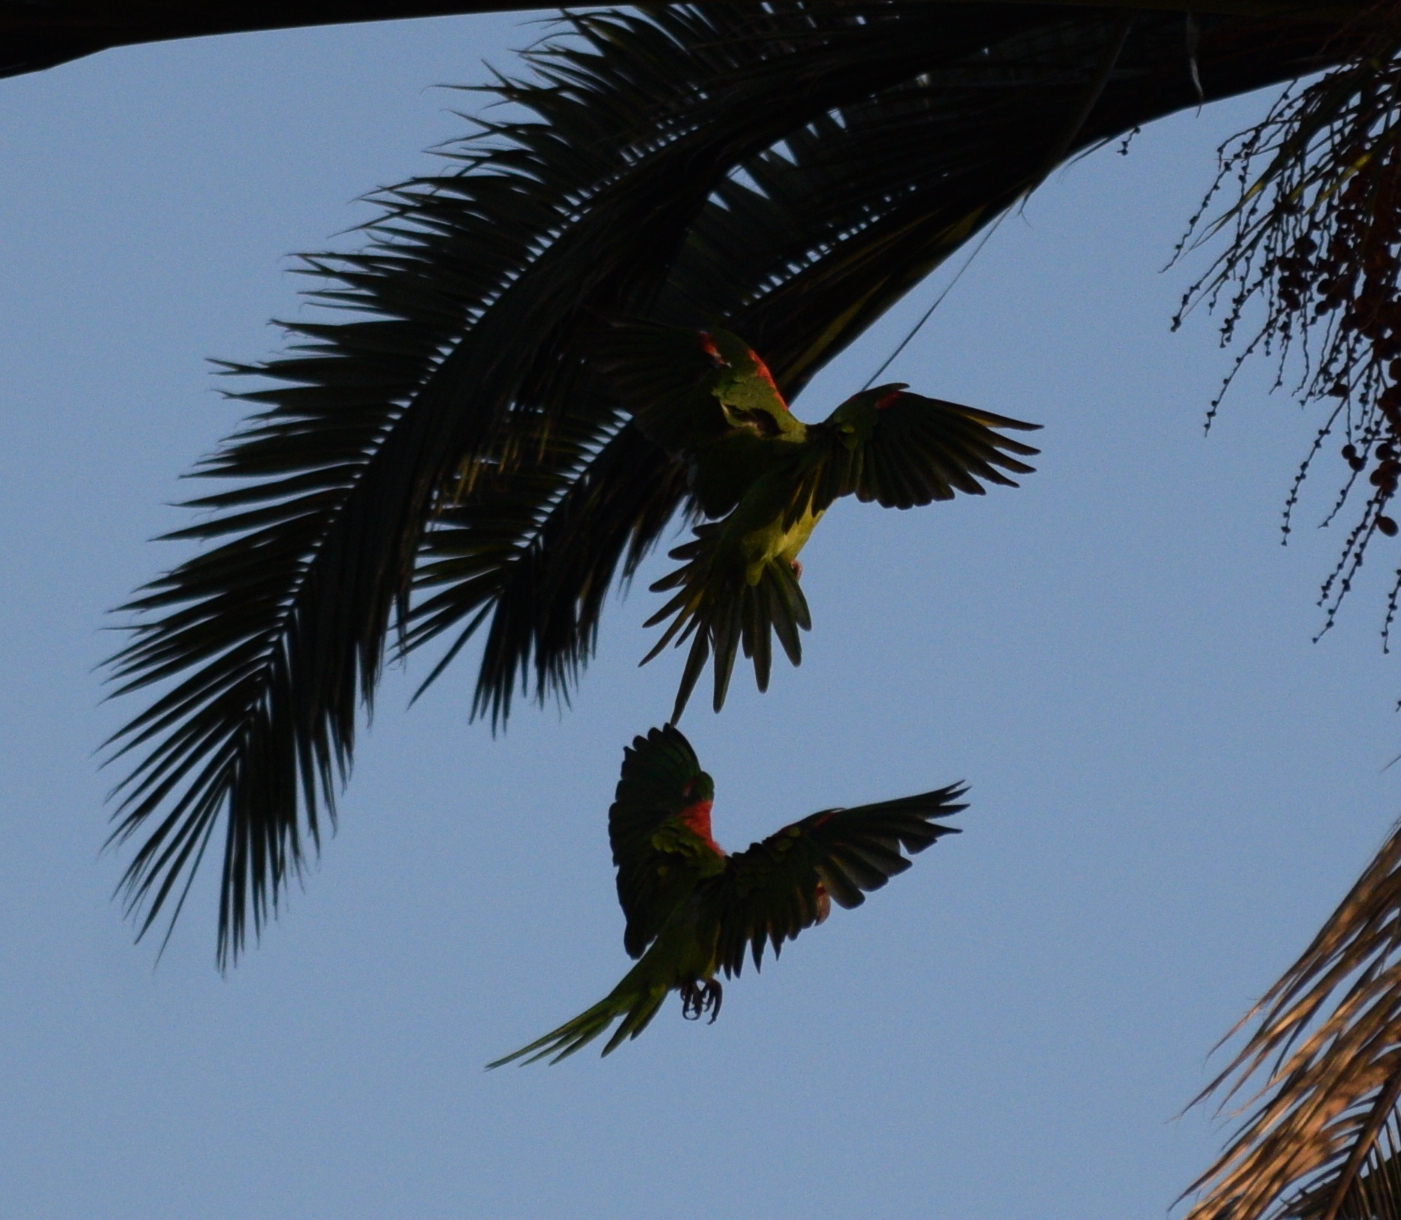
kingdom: Animalia
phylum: Chordata
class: Aves
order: Psittaciformes
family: Psittacidae
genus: Aratinga
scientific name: Aratinga erythrogenys
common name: Red-masked parakeet
